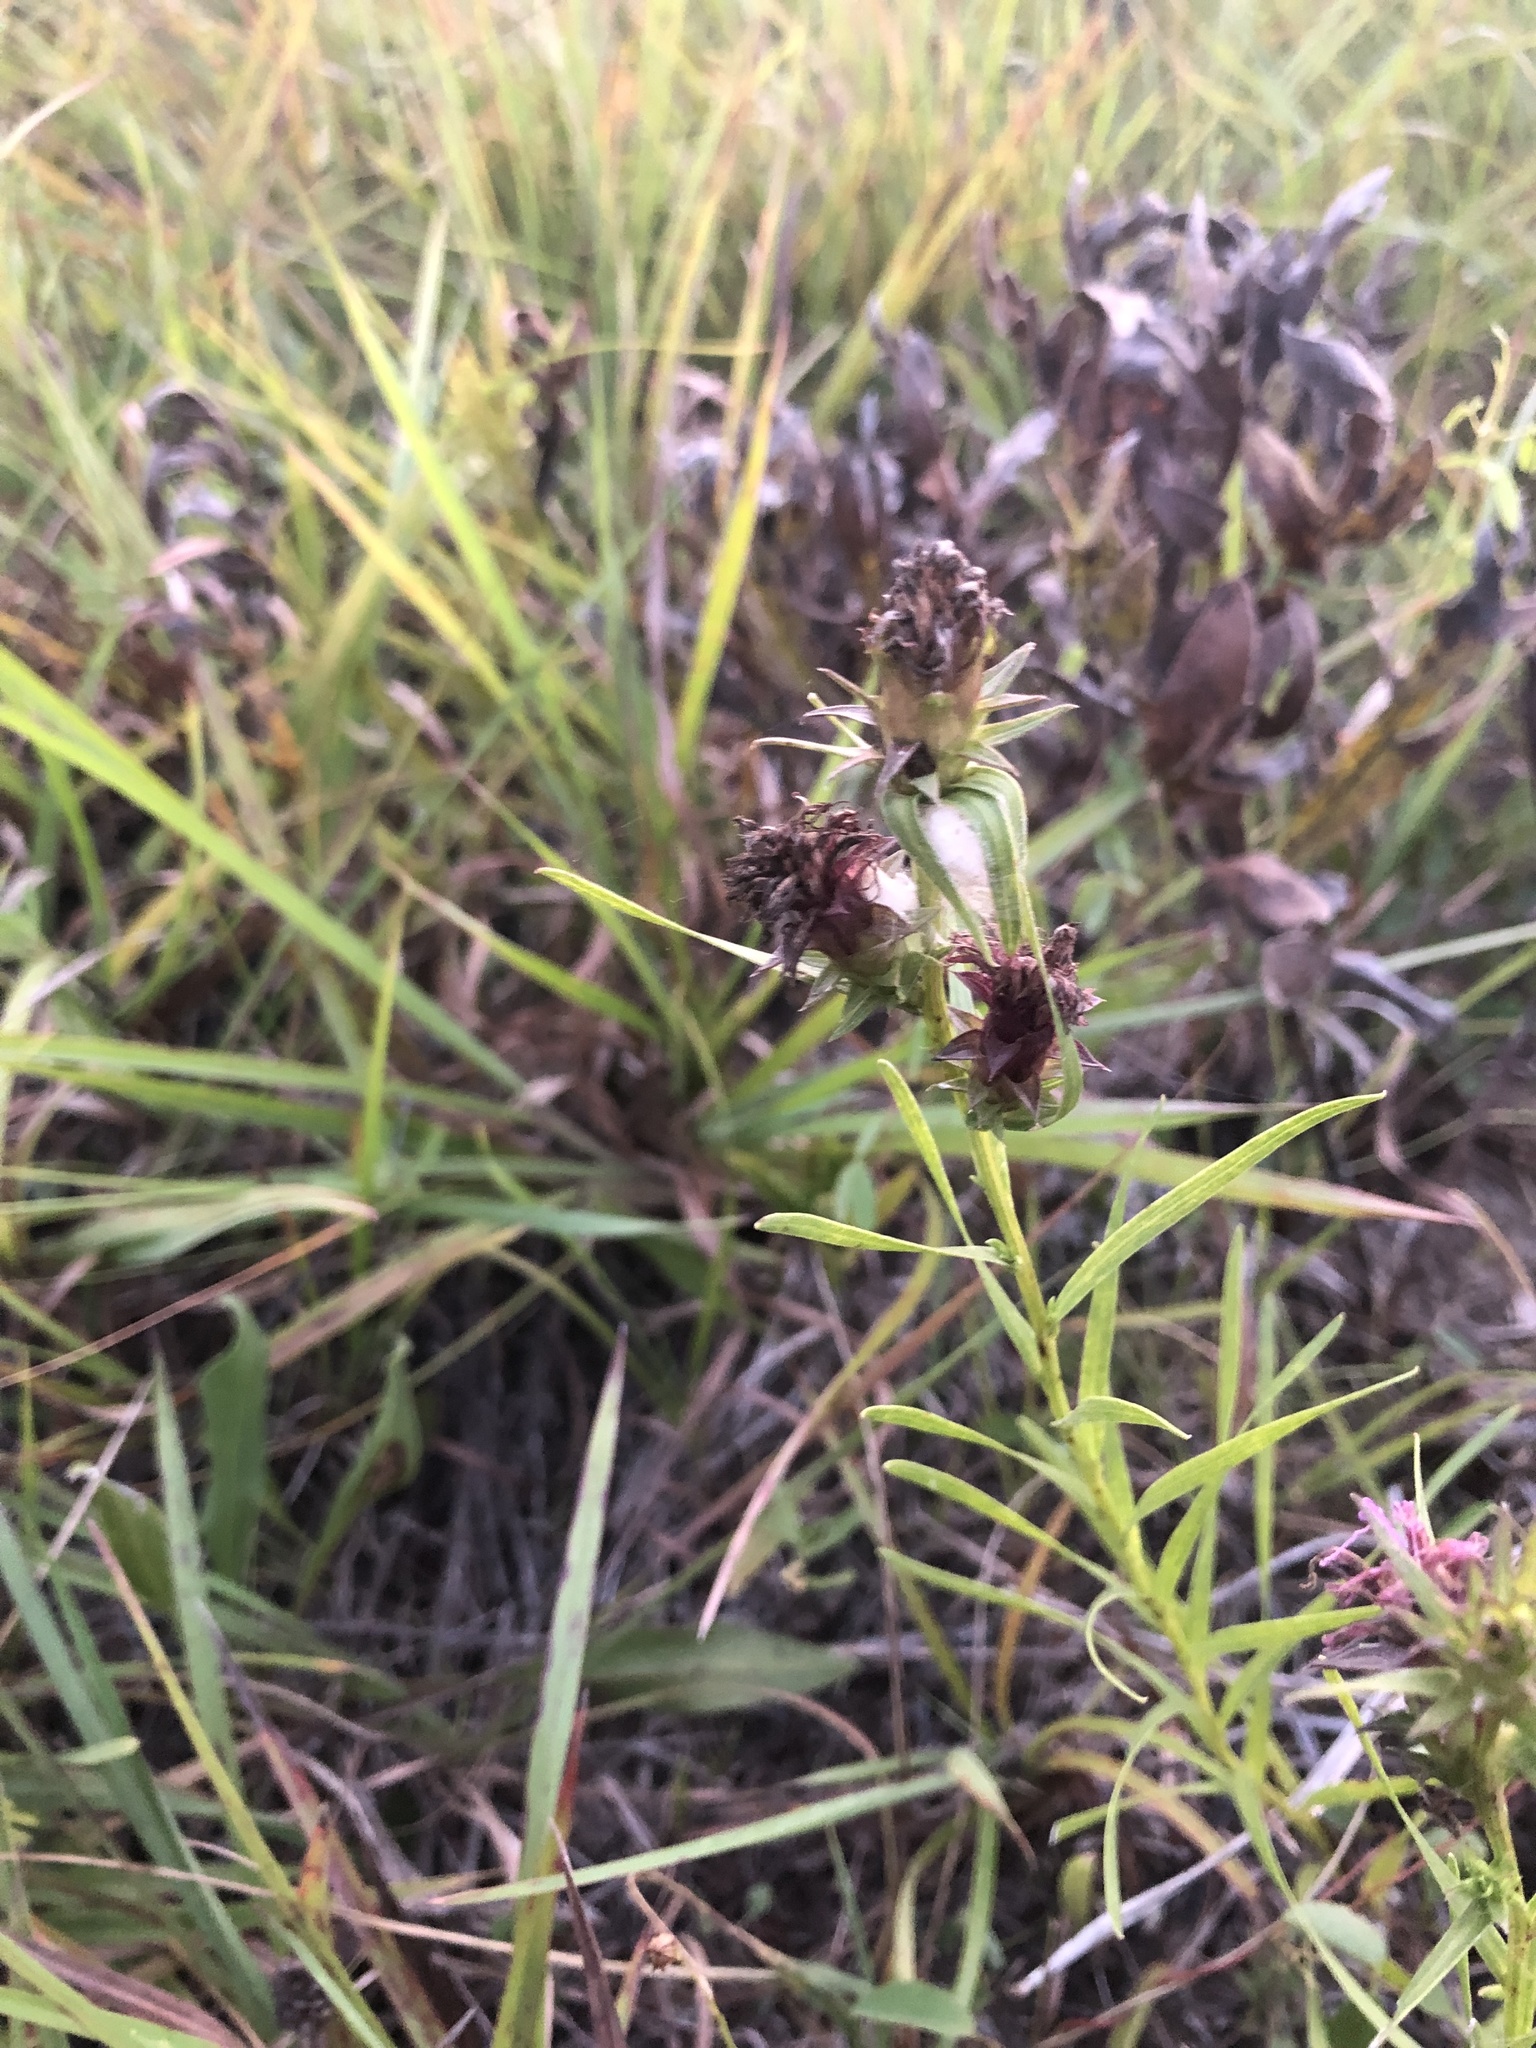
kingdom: Plantae
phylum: Tracheophyta
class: Magnoliopsida
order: Asterales
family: Asteraceae
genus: Liatris
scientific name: Liatris squarrosa
